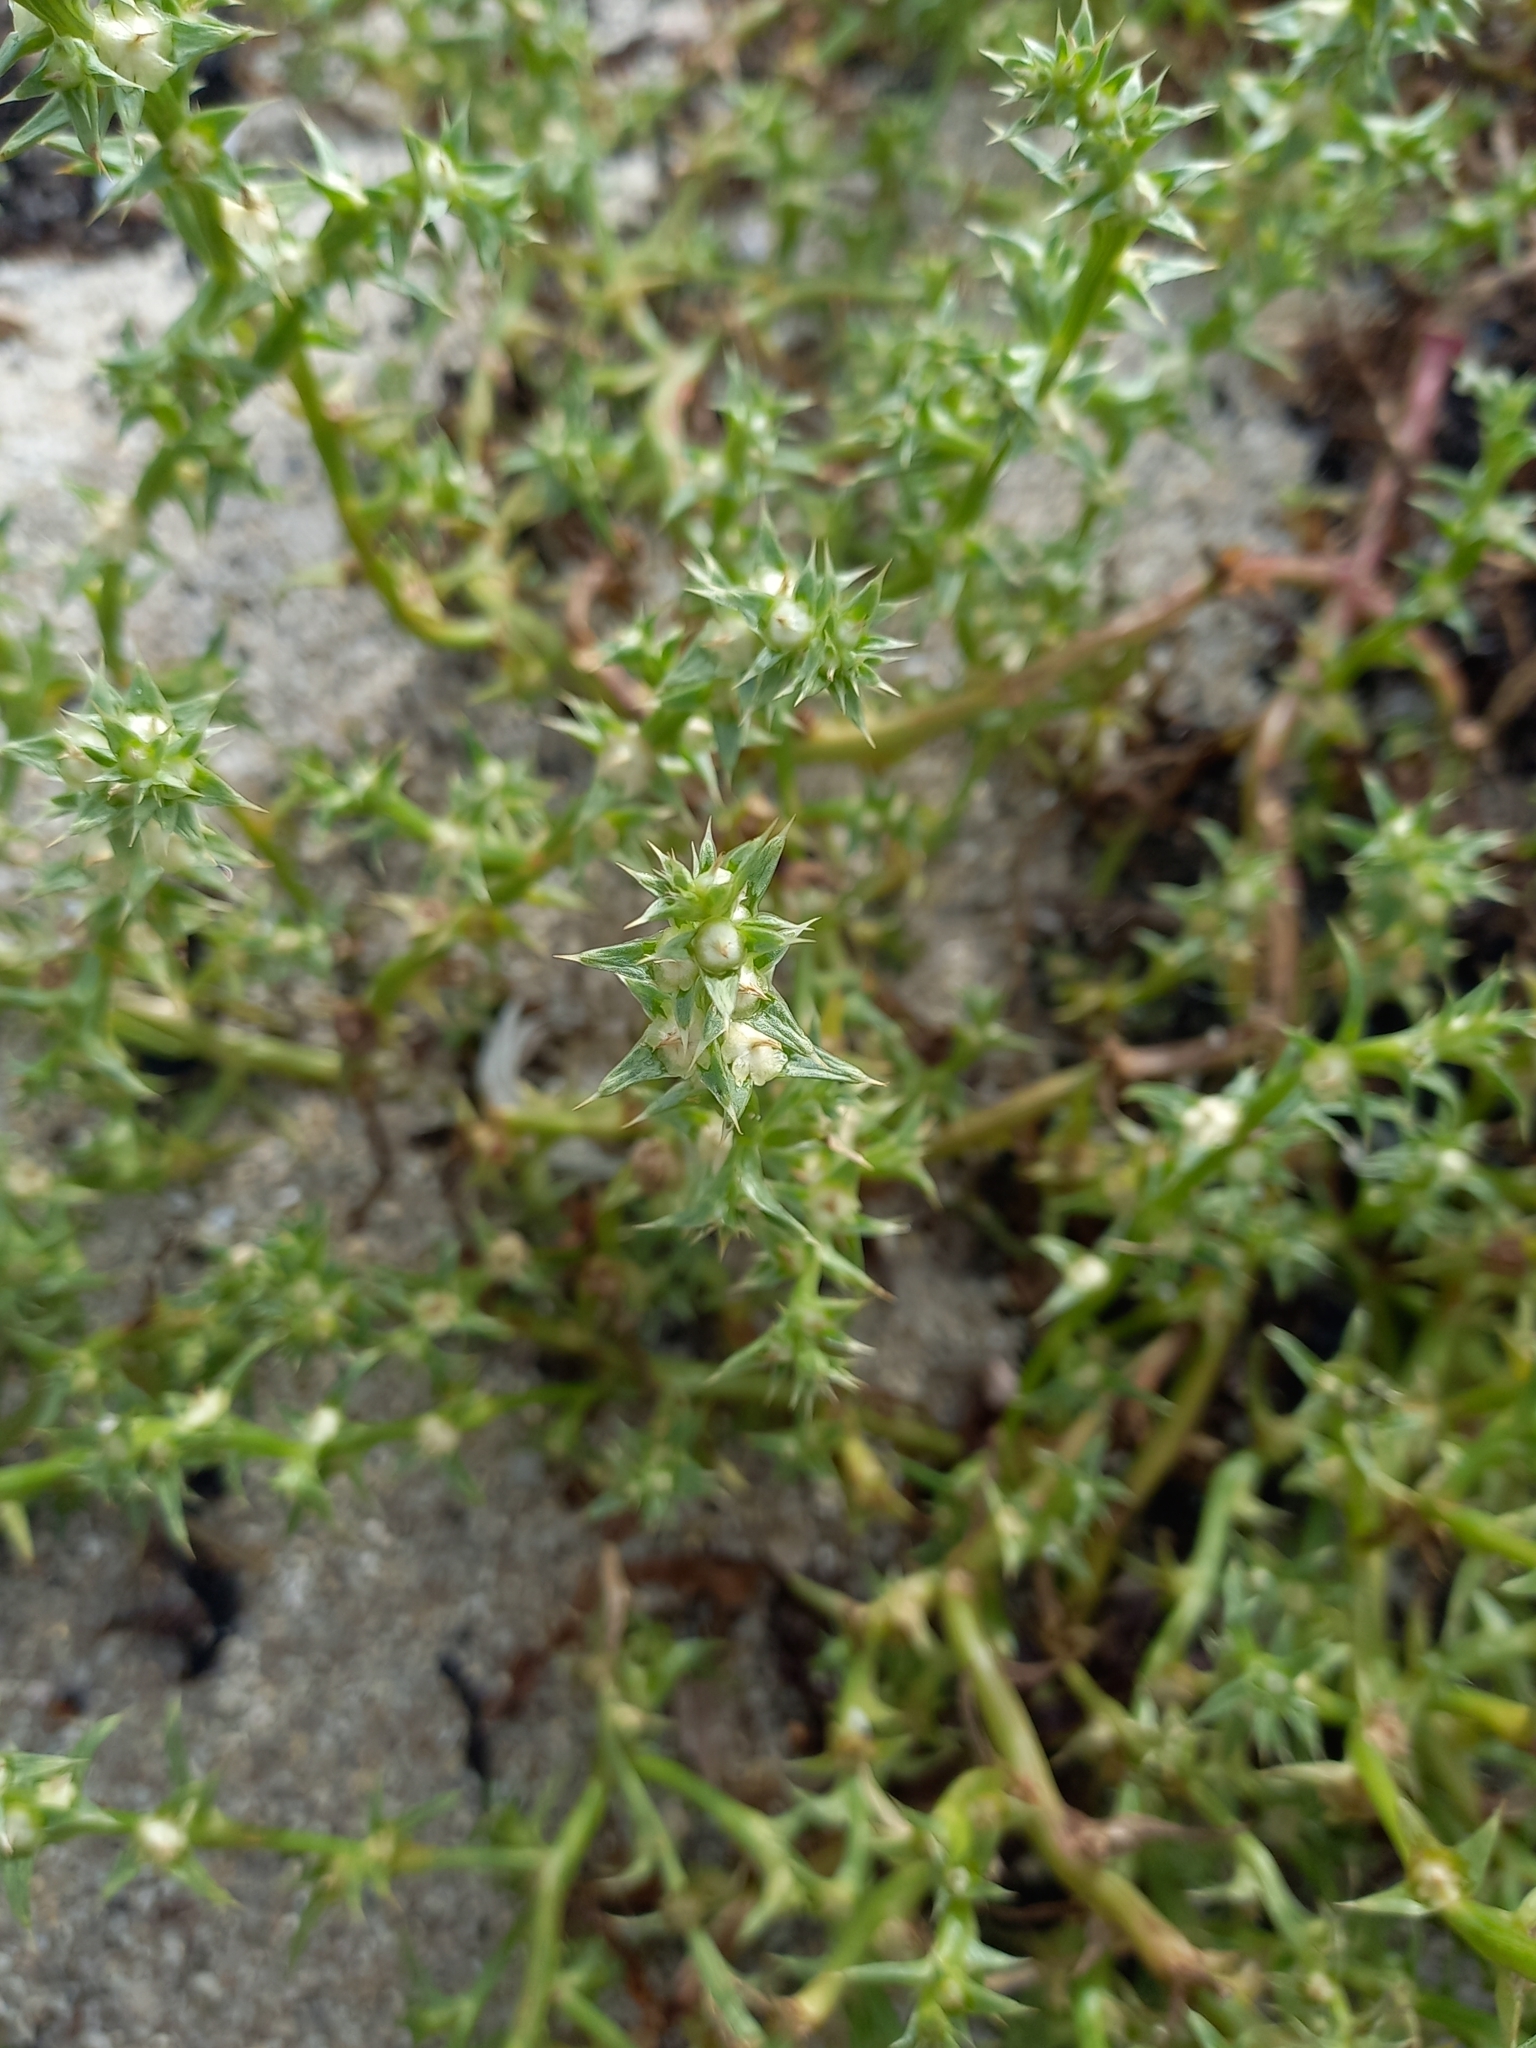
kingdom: Plantae
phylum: Tracheophyta
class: Magnoliopsida
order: Caryophyllales
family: Amaranthaceae
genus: Salsola
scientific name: Salsola kali
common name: Saltwort
